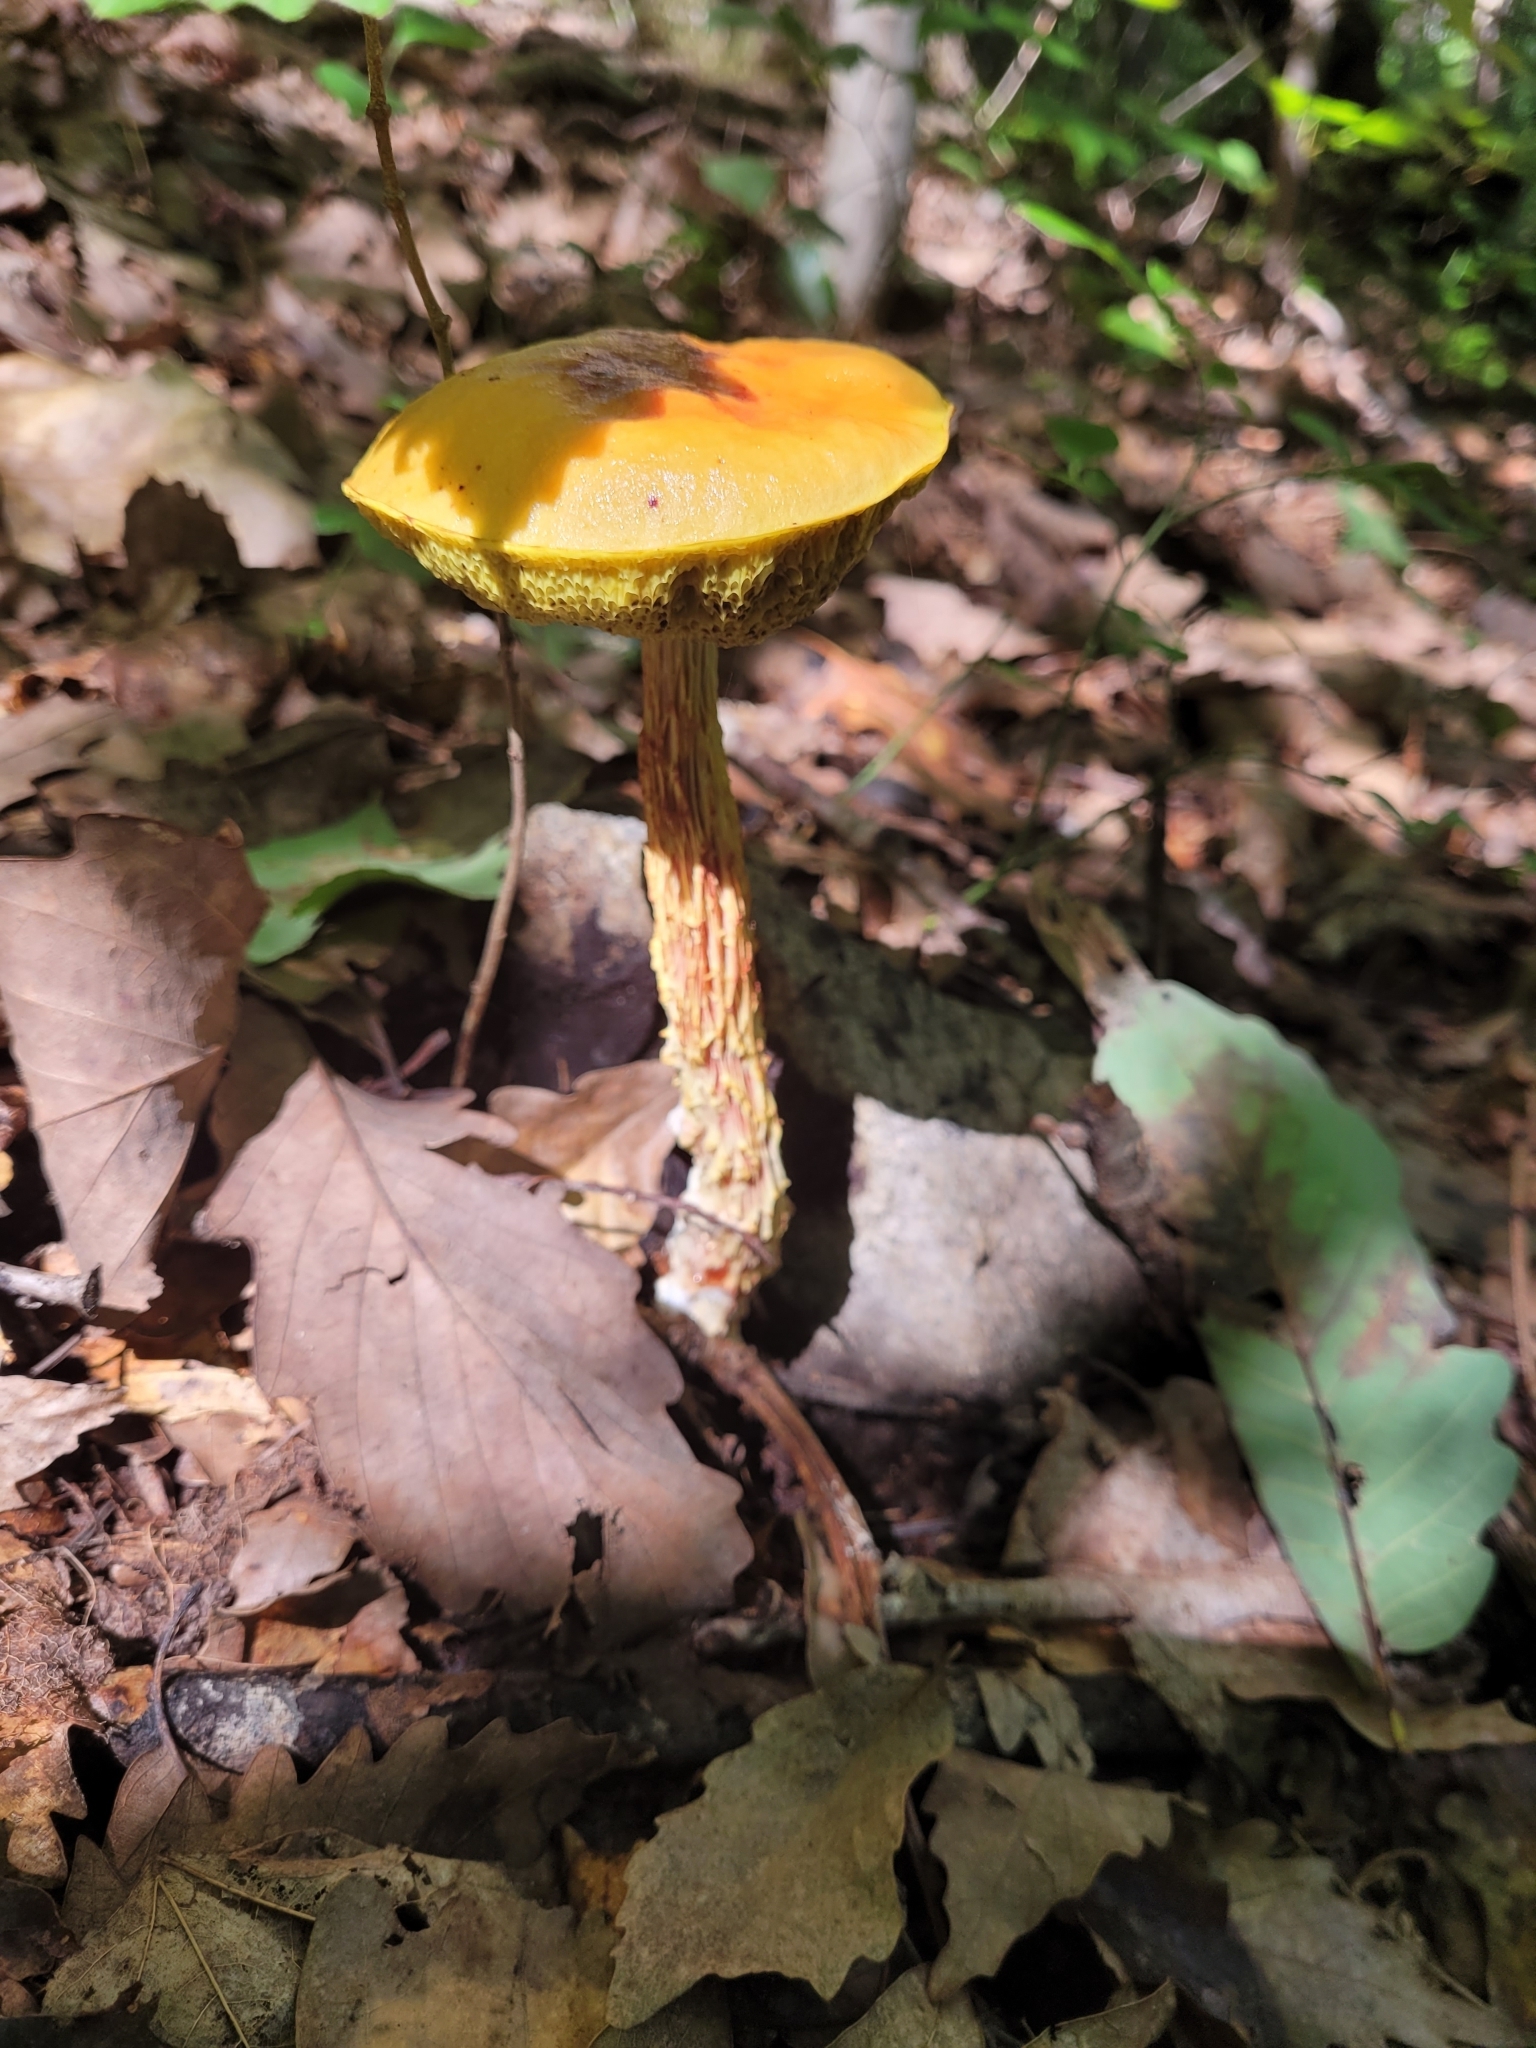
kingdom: Fungi
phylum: Basidiomycota
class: Agaricomycetes
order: Boletales
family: Boletaceae
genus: Aureoboletus
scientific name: Aureoboletus betula
